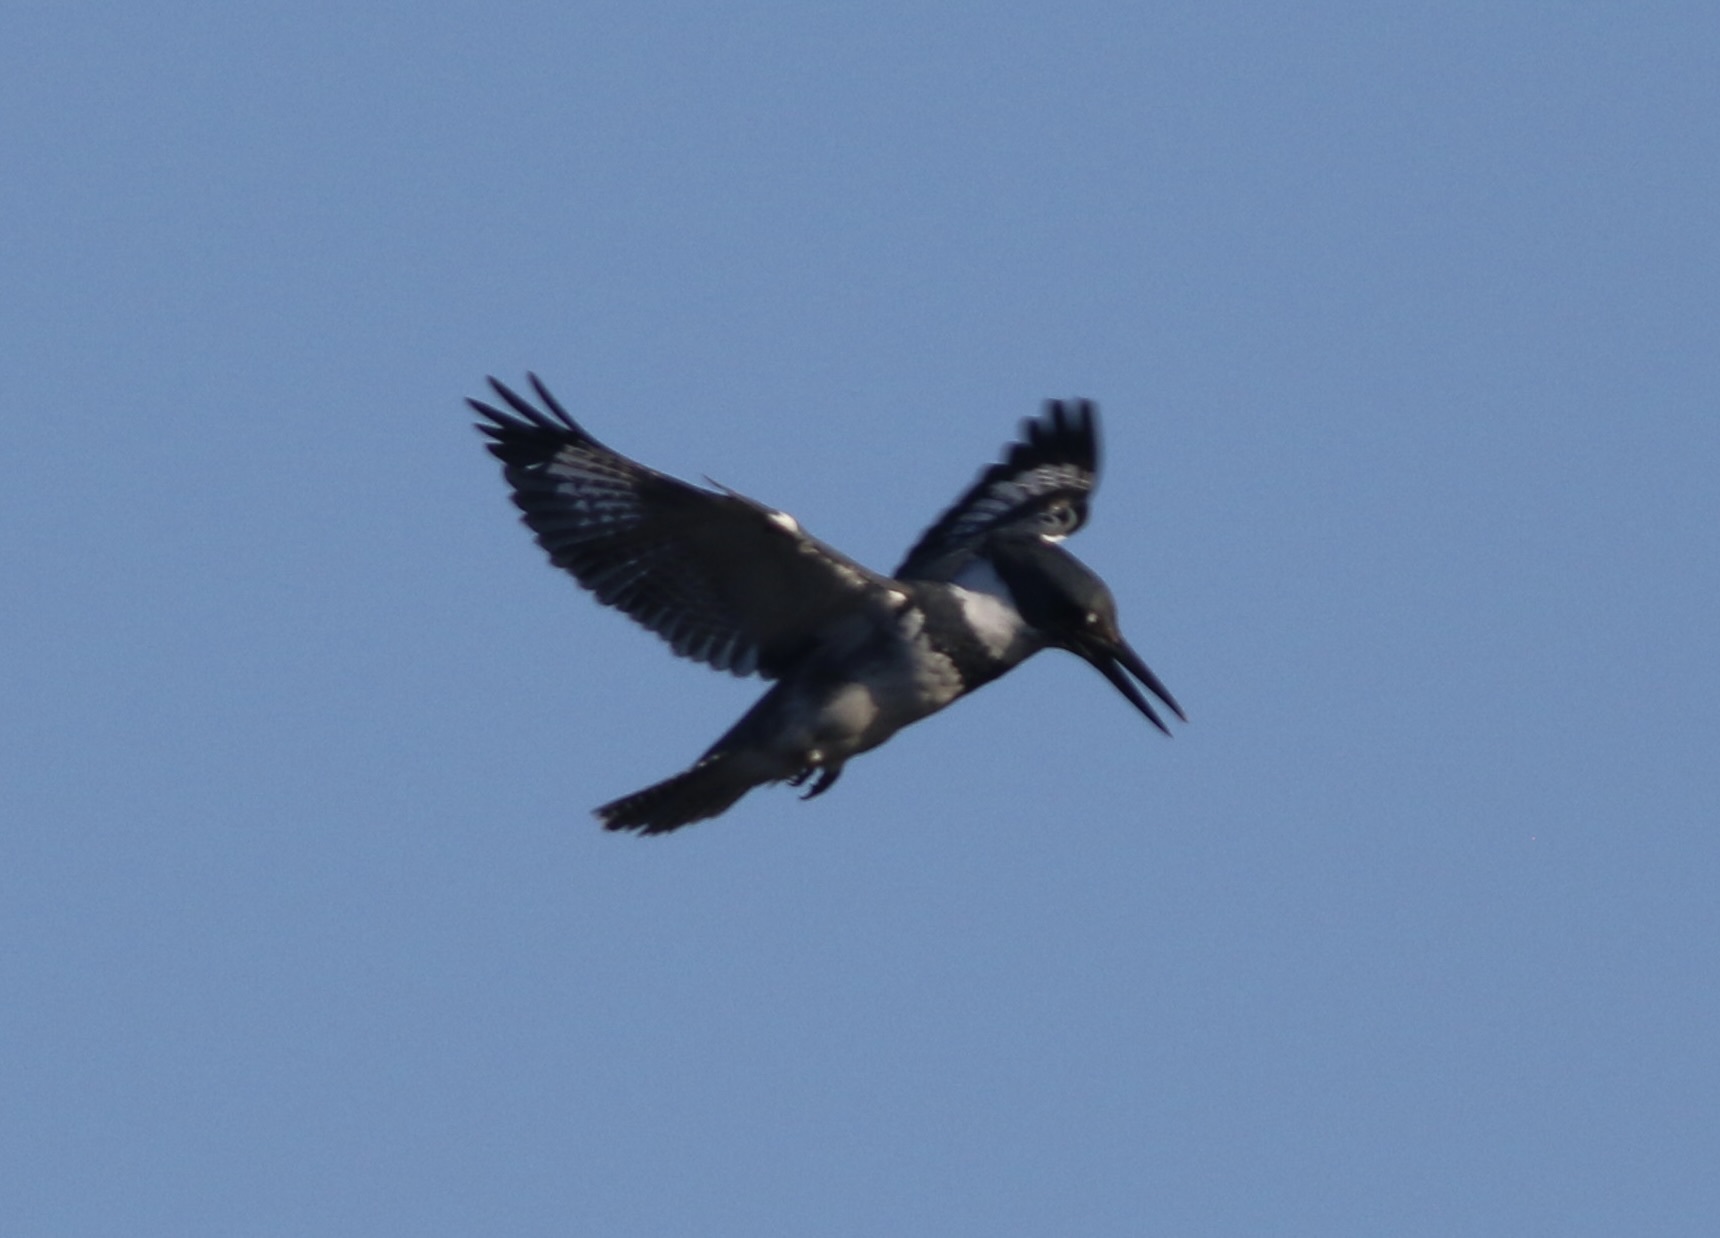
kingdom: Animalia
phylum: Chordata
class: Aves
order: Coraciiformes
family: Alcedinidae
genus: Megaceryle
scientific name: Megaceryle alcyon
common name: Belted kingfisher
